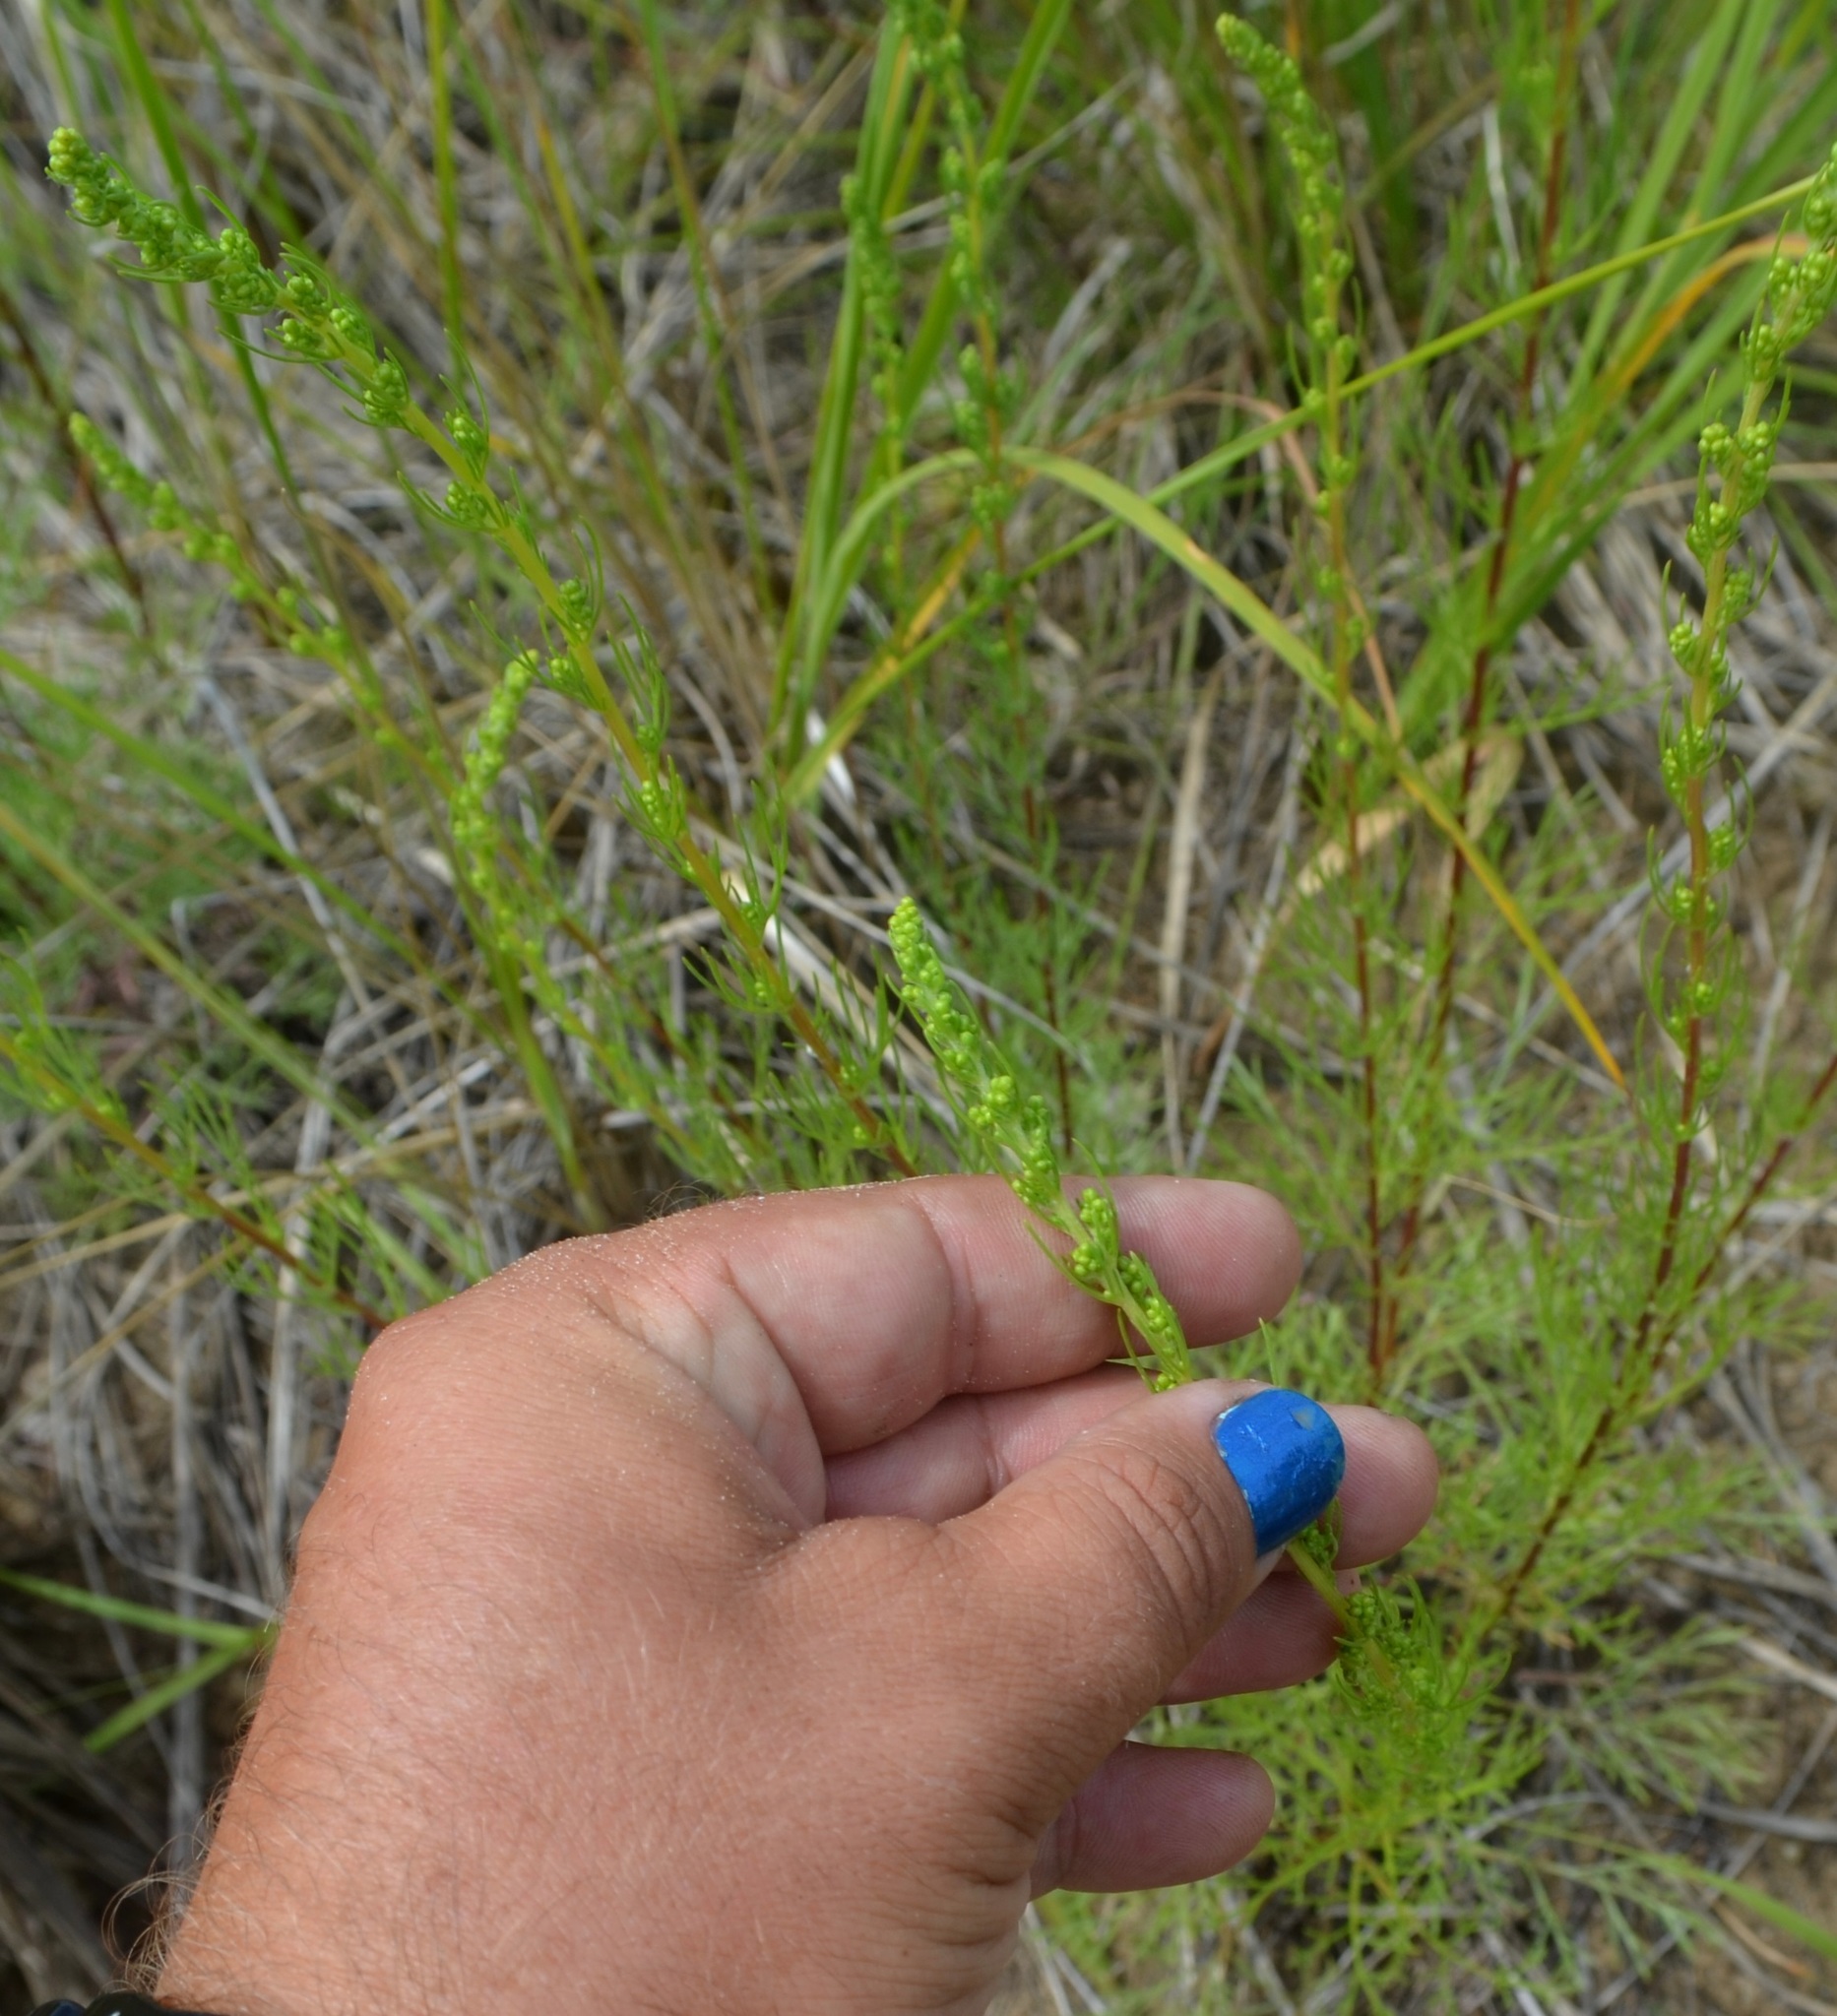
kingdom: Plantae
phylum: Tracheophyta
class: Magnoliopsida
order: Asterales
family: Asteraceae
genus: Artemisia
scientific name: Artemisia campestris
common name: Field wormwood
